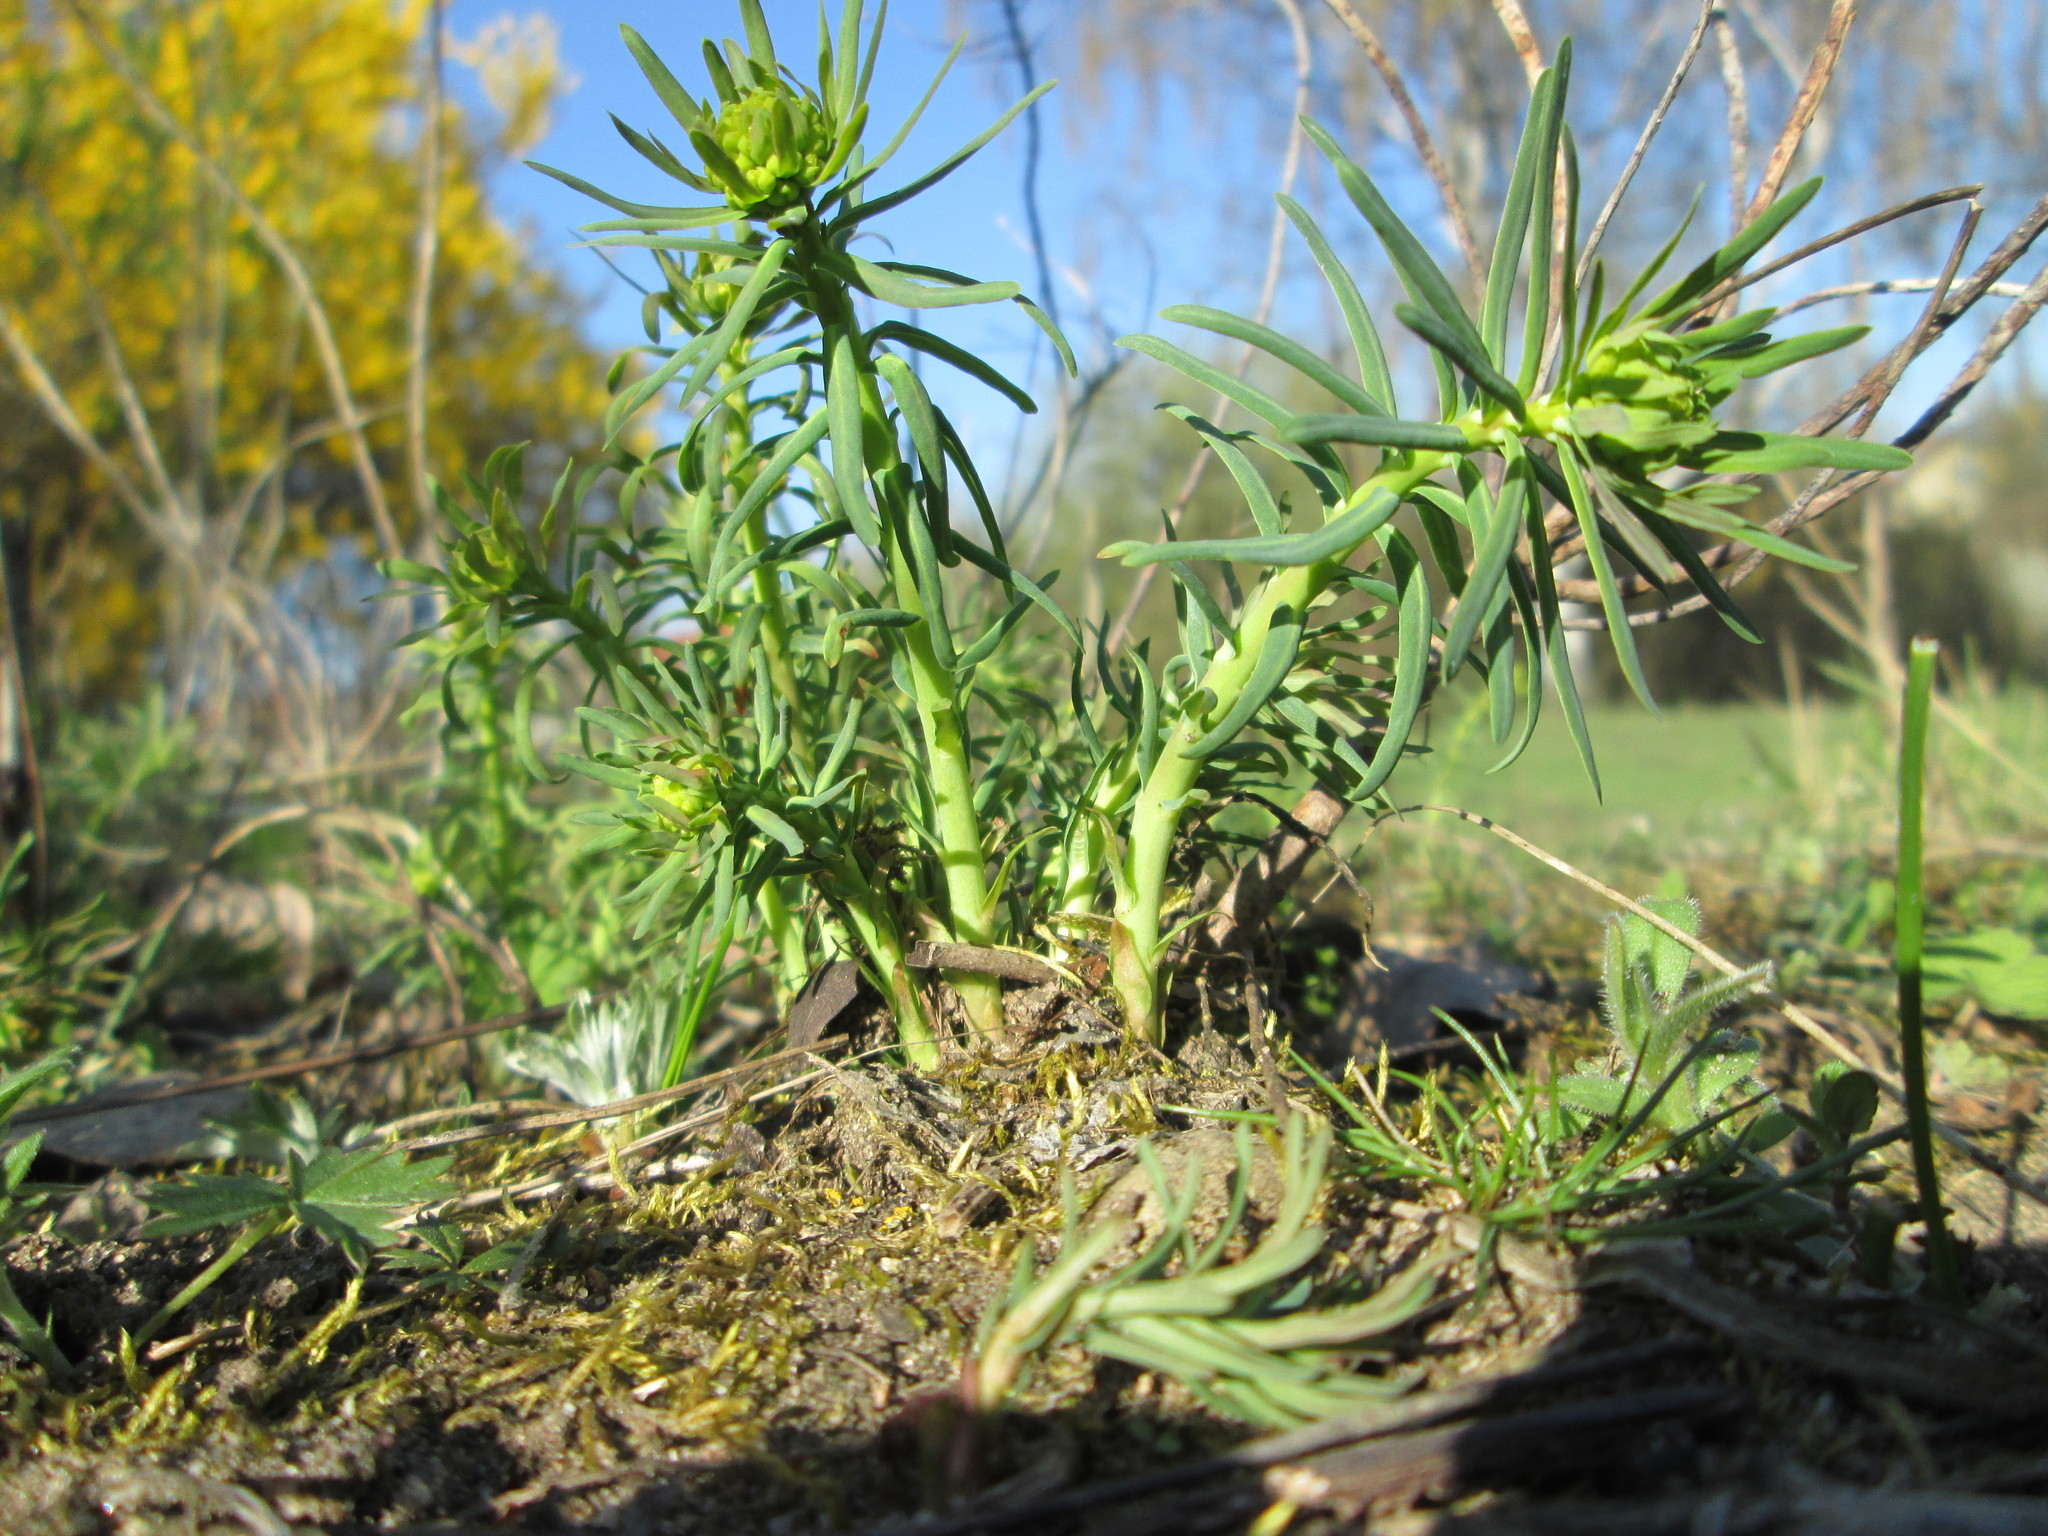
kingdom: Plantae
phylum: Tracheophyta
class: Magnoliopsida
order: Malpighiales
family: Euphorbiaceae
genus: Euphorbia
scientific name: Euphorbia cyparissias
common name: Cypress spurge
